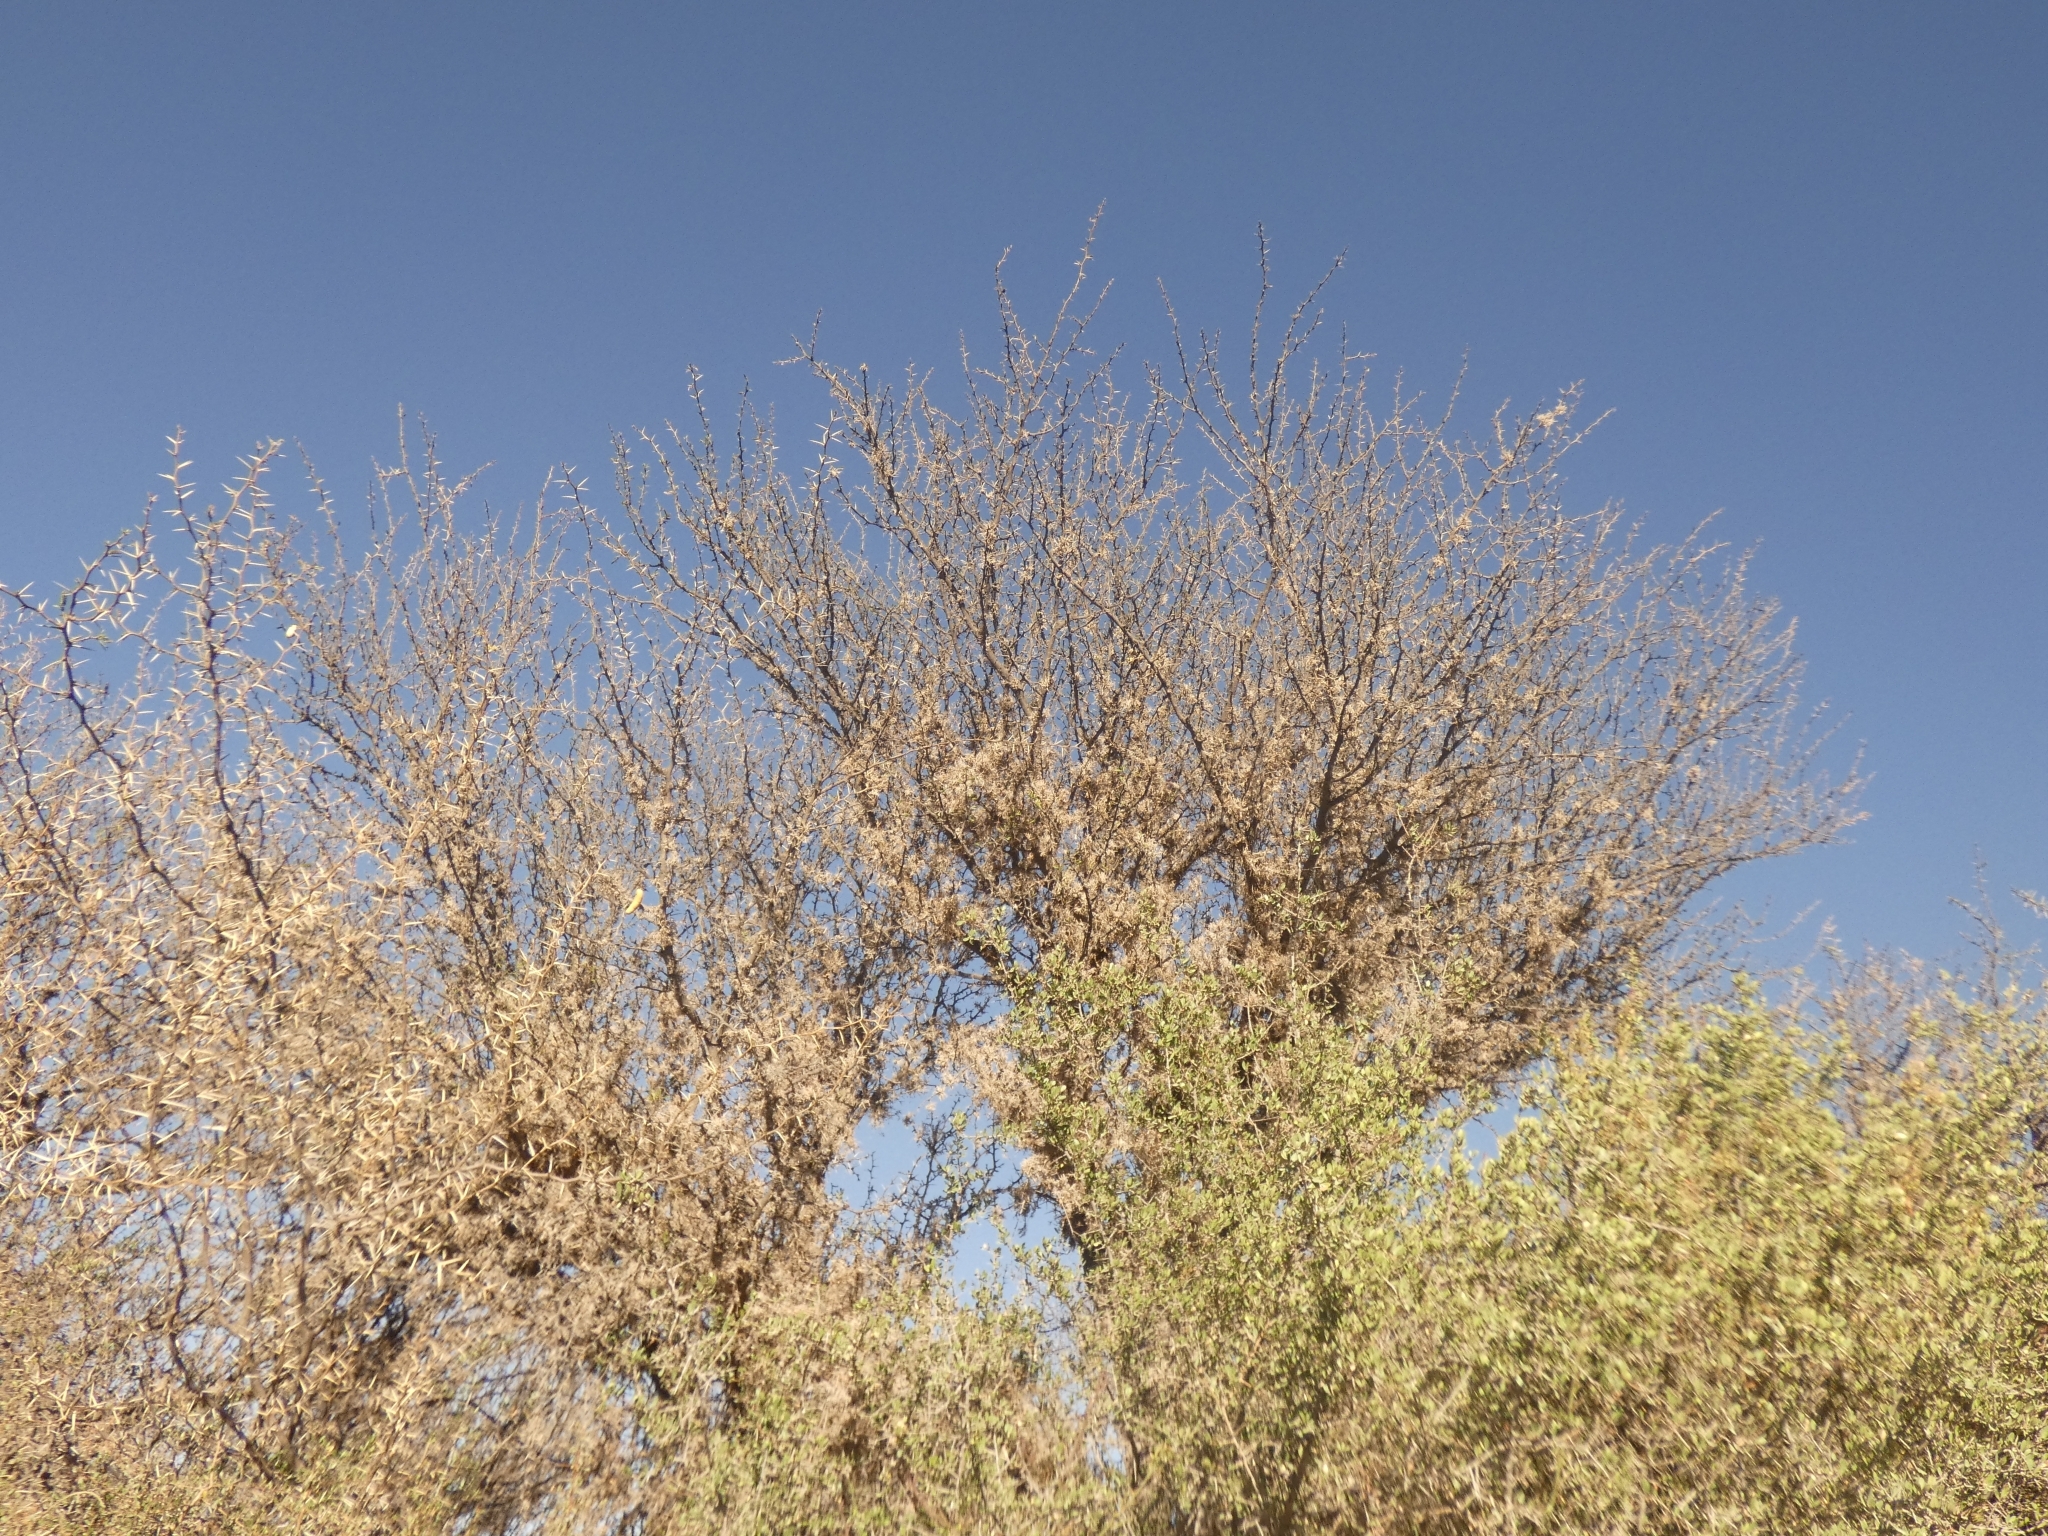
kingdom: Plantae
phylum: Tracheophyta
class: Magnoliopsida
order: Fabales
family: Fabaceae
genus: Prosopis
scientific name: Prosopis ferox
